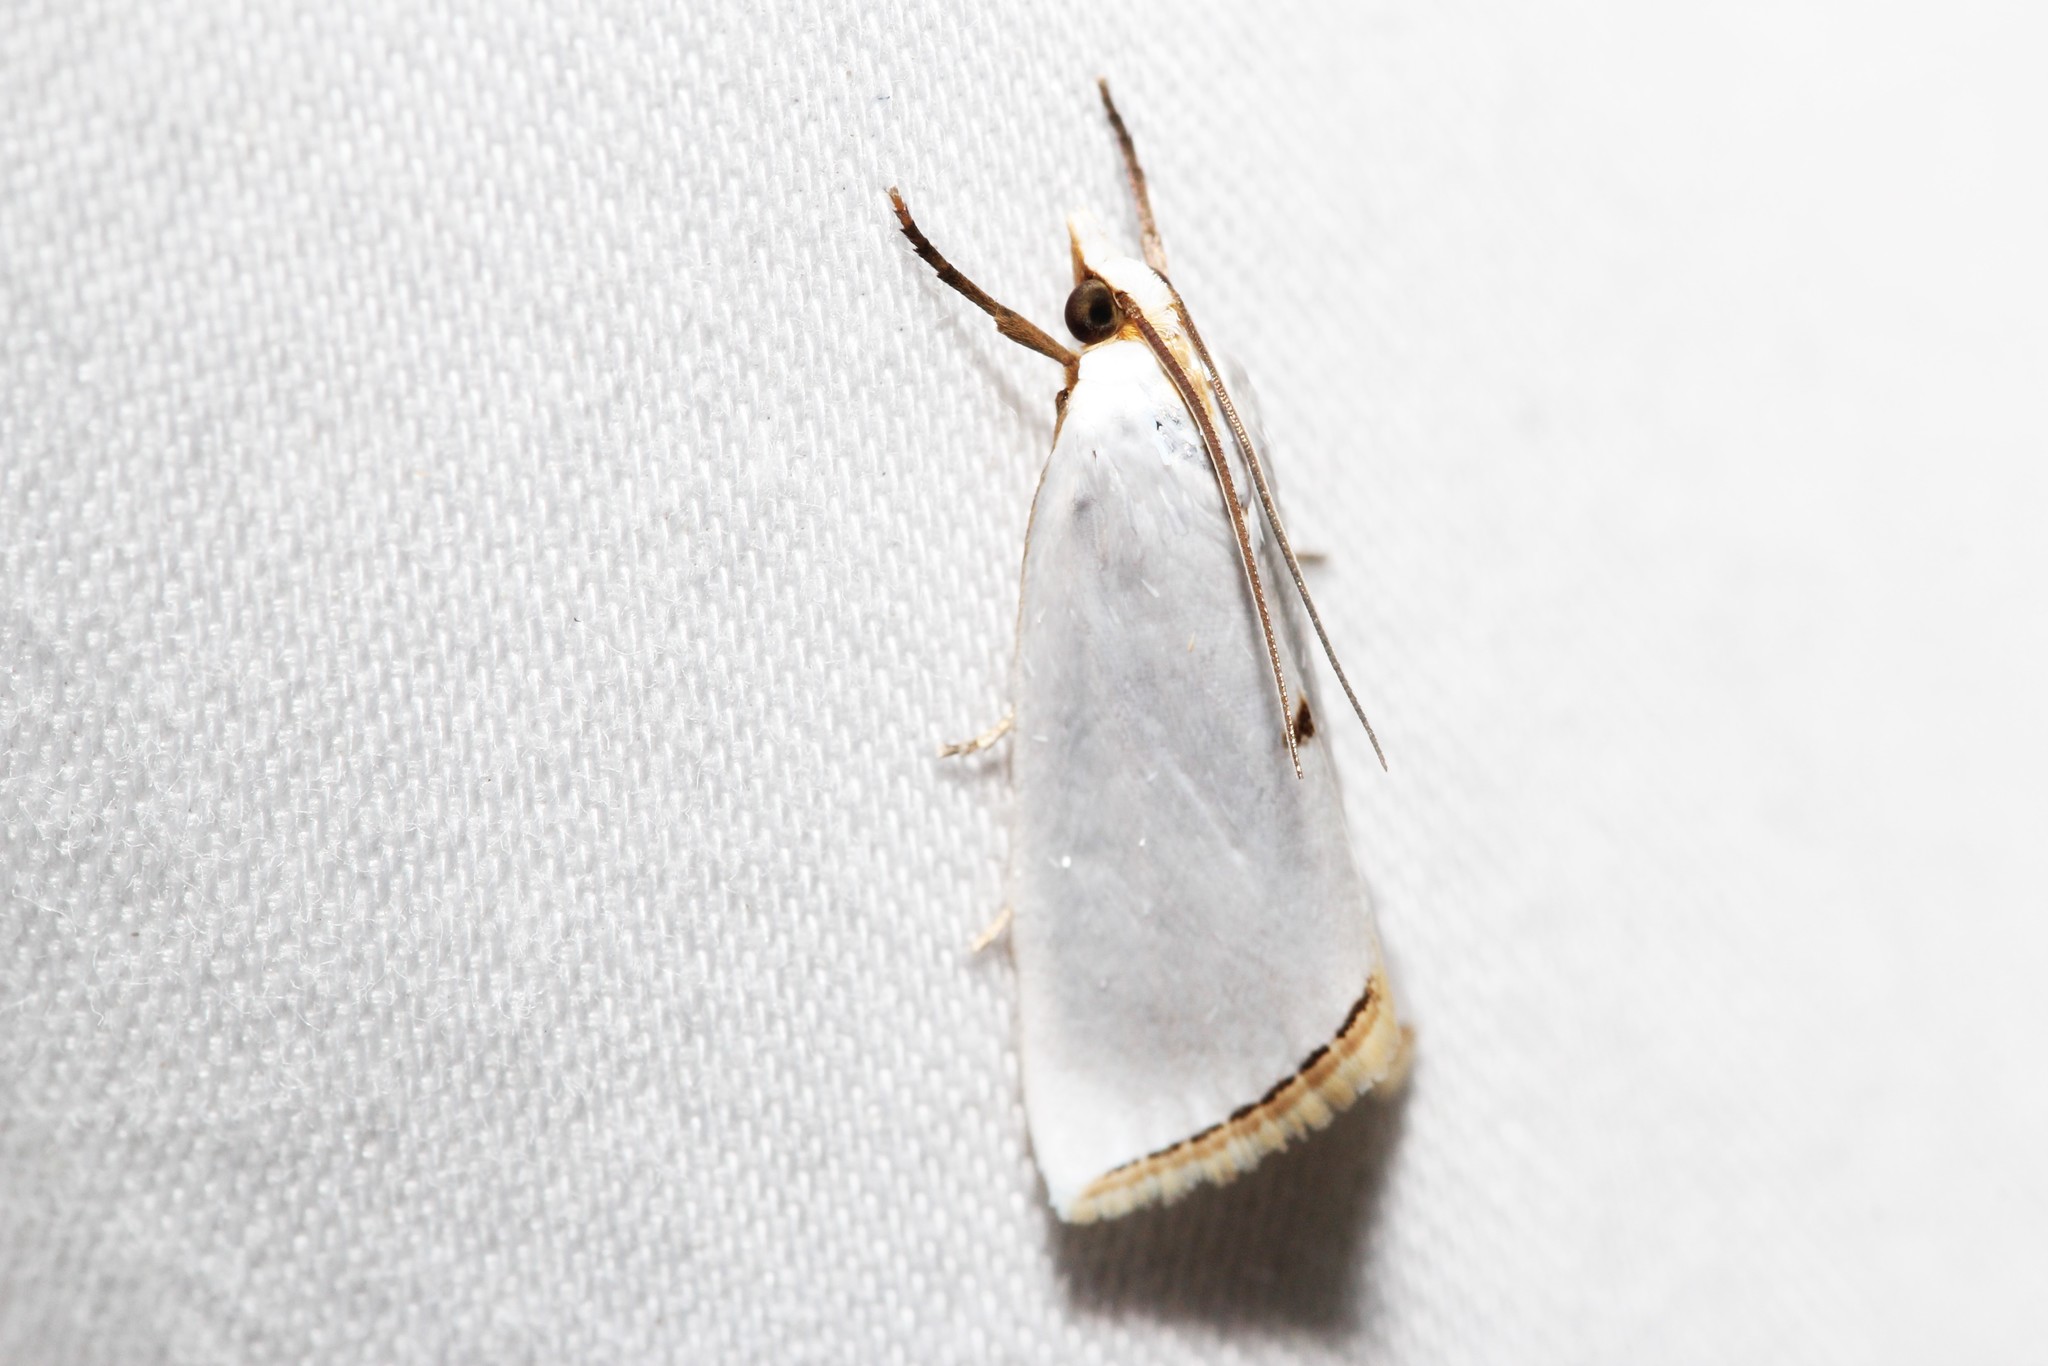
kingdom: Animalia
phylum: Arthropoda
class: Insecta
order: Lepidoptera
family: Crambidae
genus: Argyria
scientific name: Argyria nivalis
